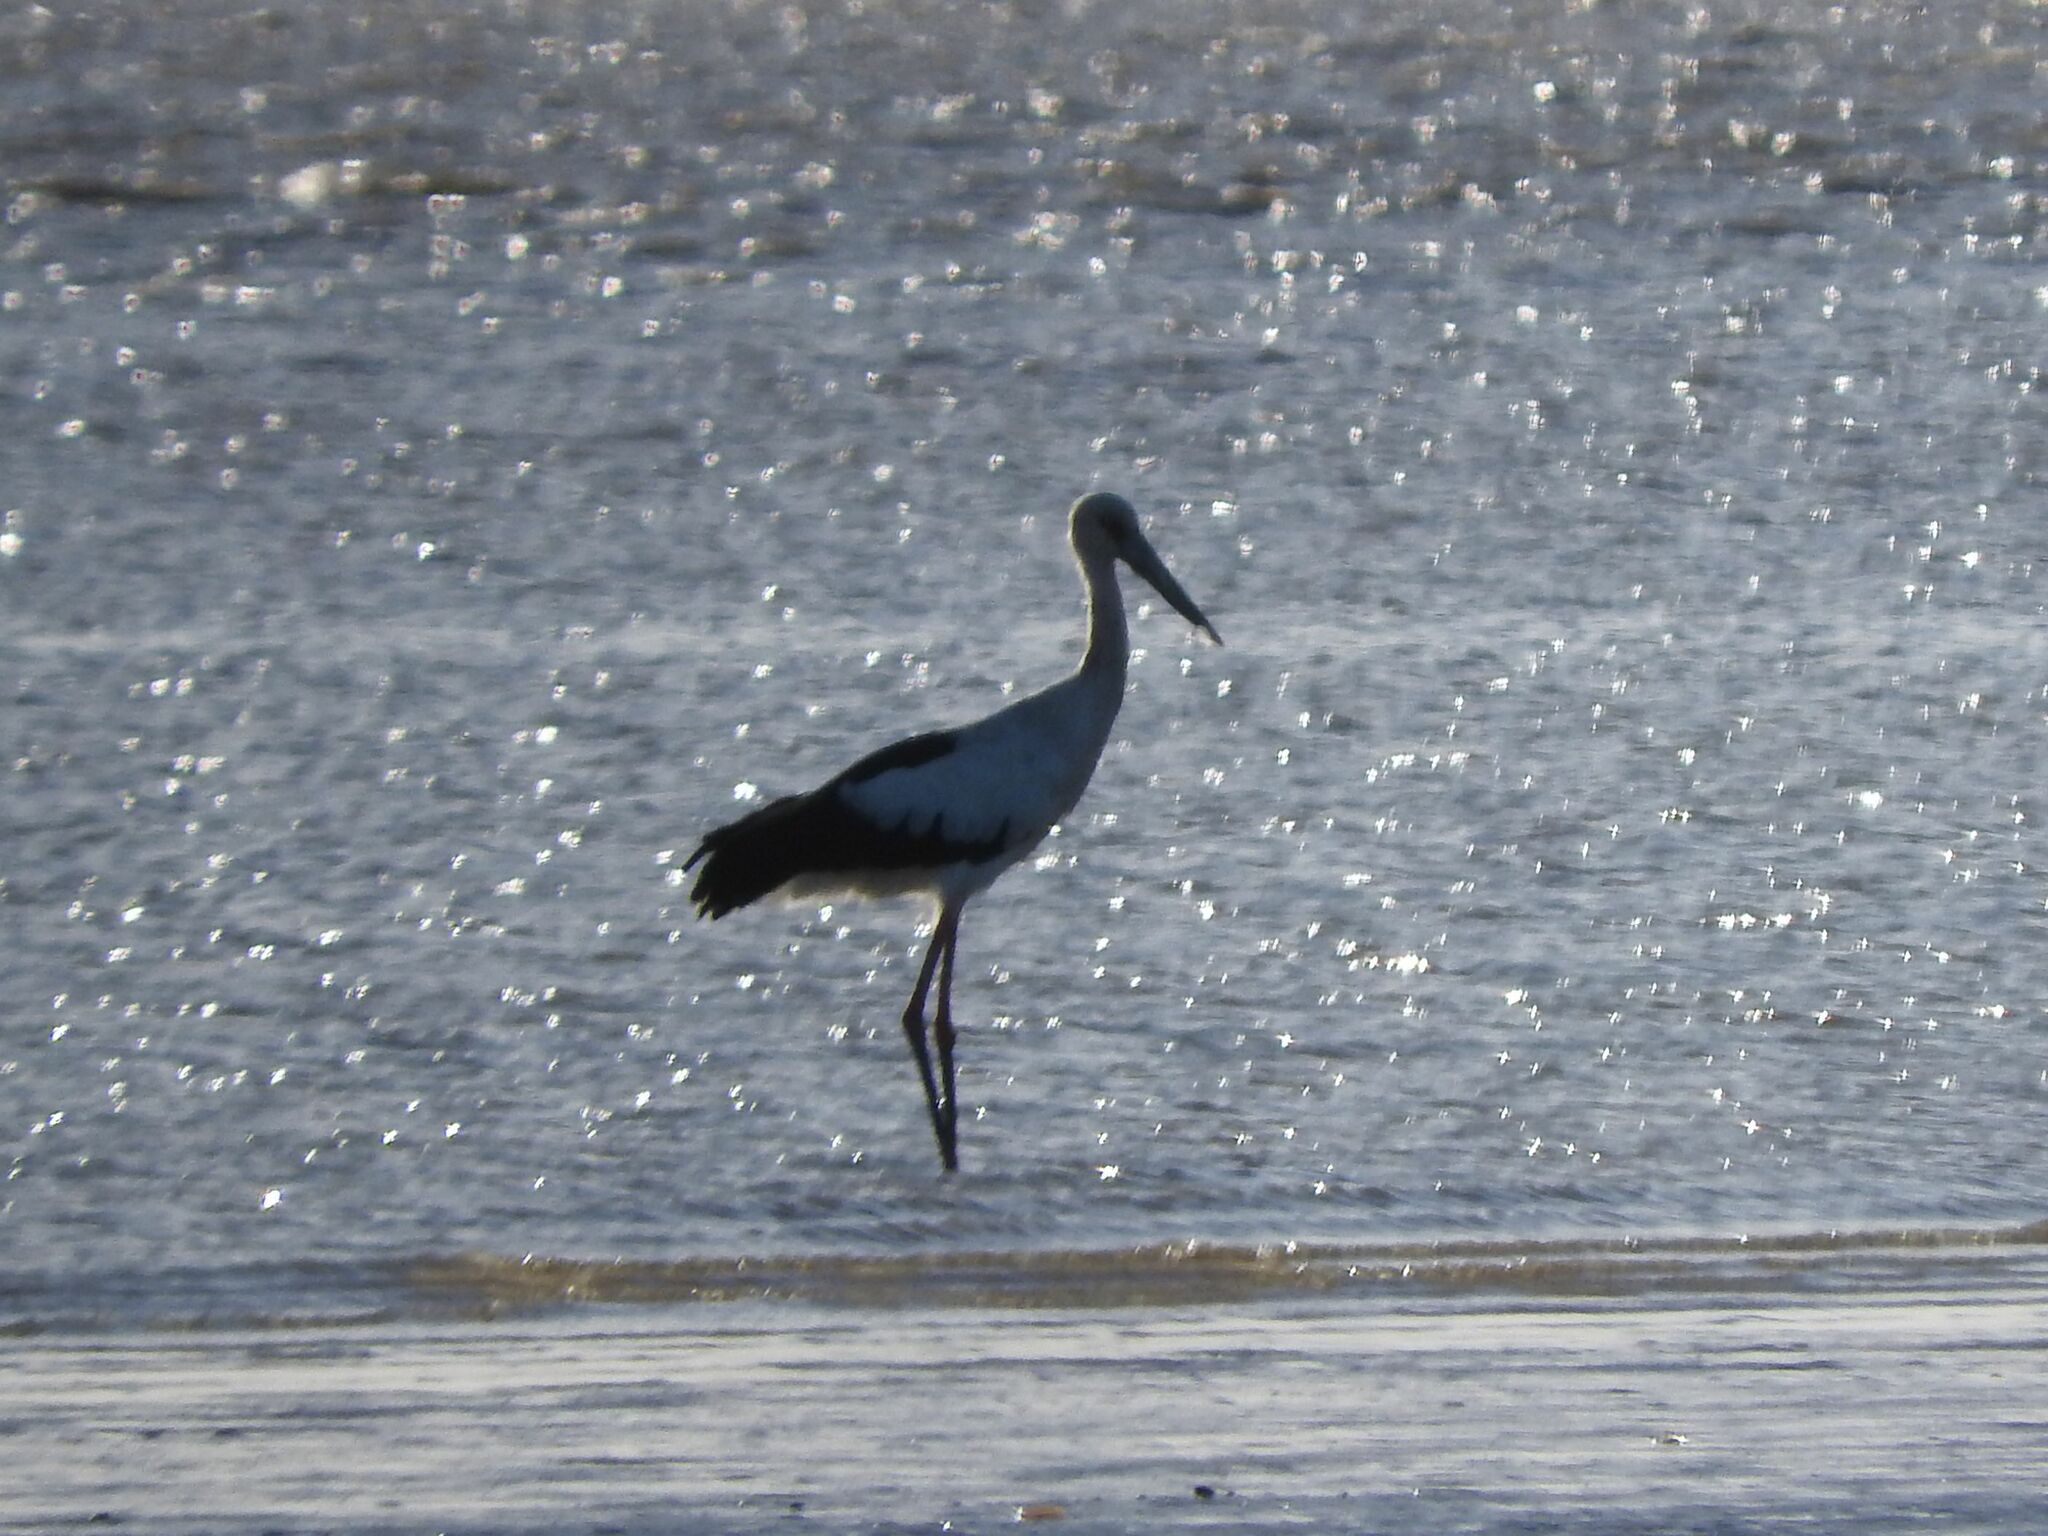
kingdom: Animalia
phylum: Chordata
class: Aves
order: Ciconiiformes
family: Ciconiidae
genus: Ciconia
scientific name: Ciconia maguari
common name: Maguari stork
